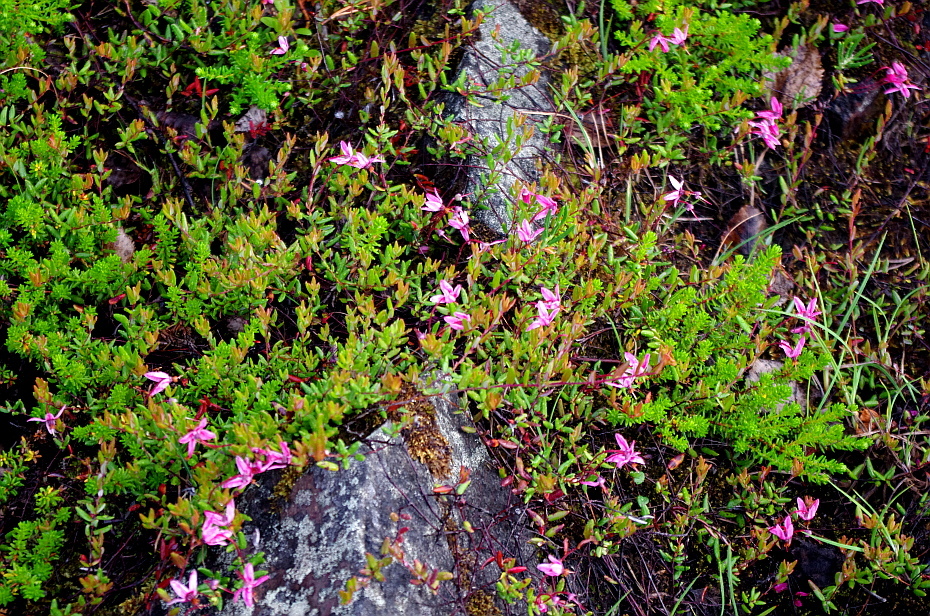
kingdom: Plantae
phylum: Tracheophyta
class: Magnoliopsida
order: Ericales
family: Ericaceae
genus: Vaccinium
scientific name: Vaccinium oxycoccos
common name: Cranberry
